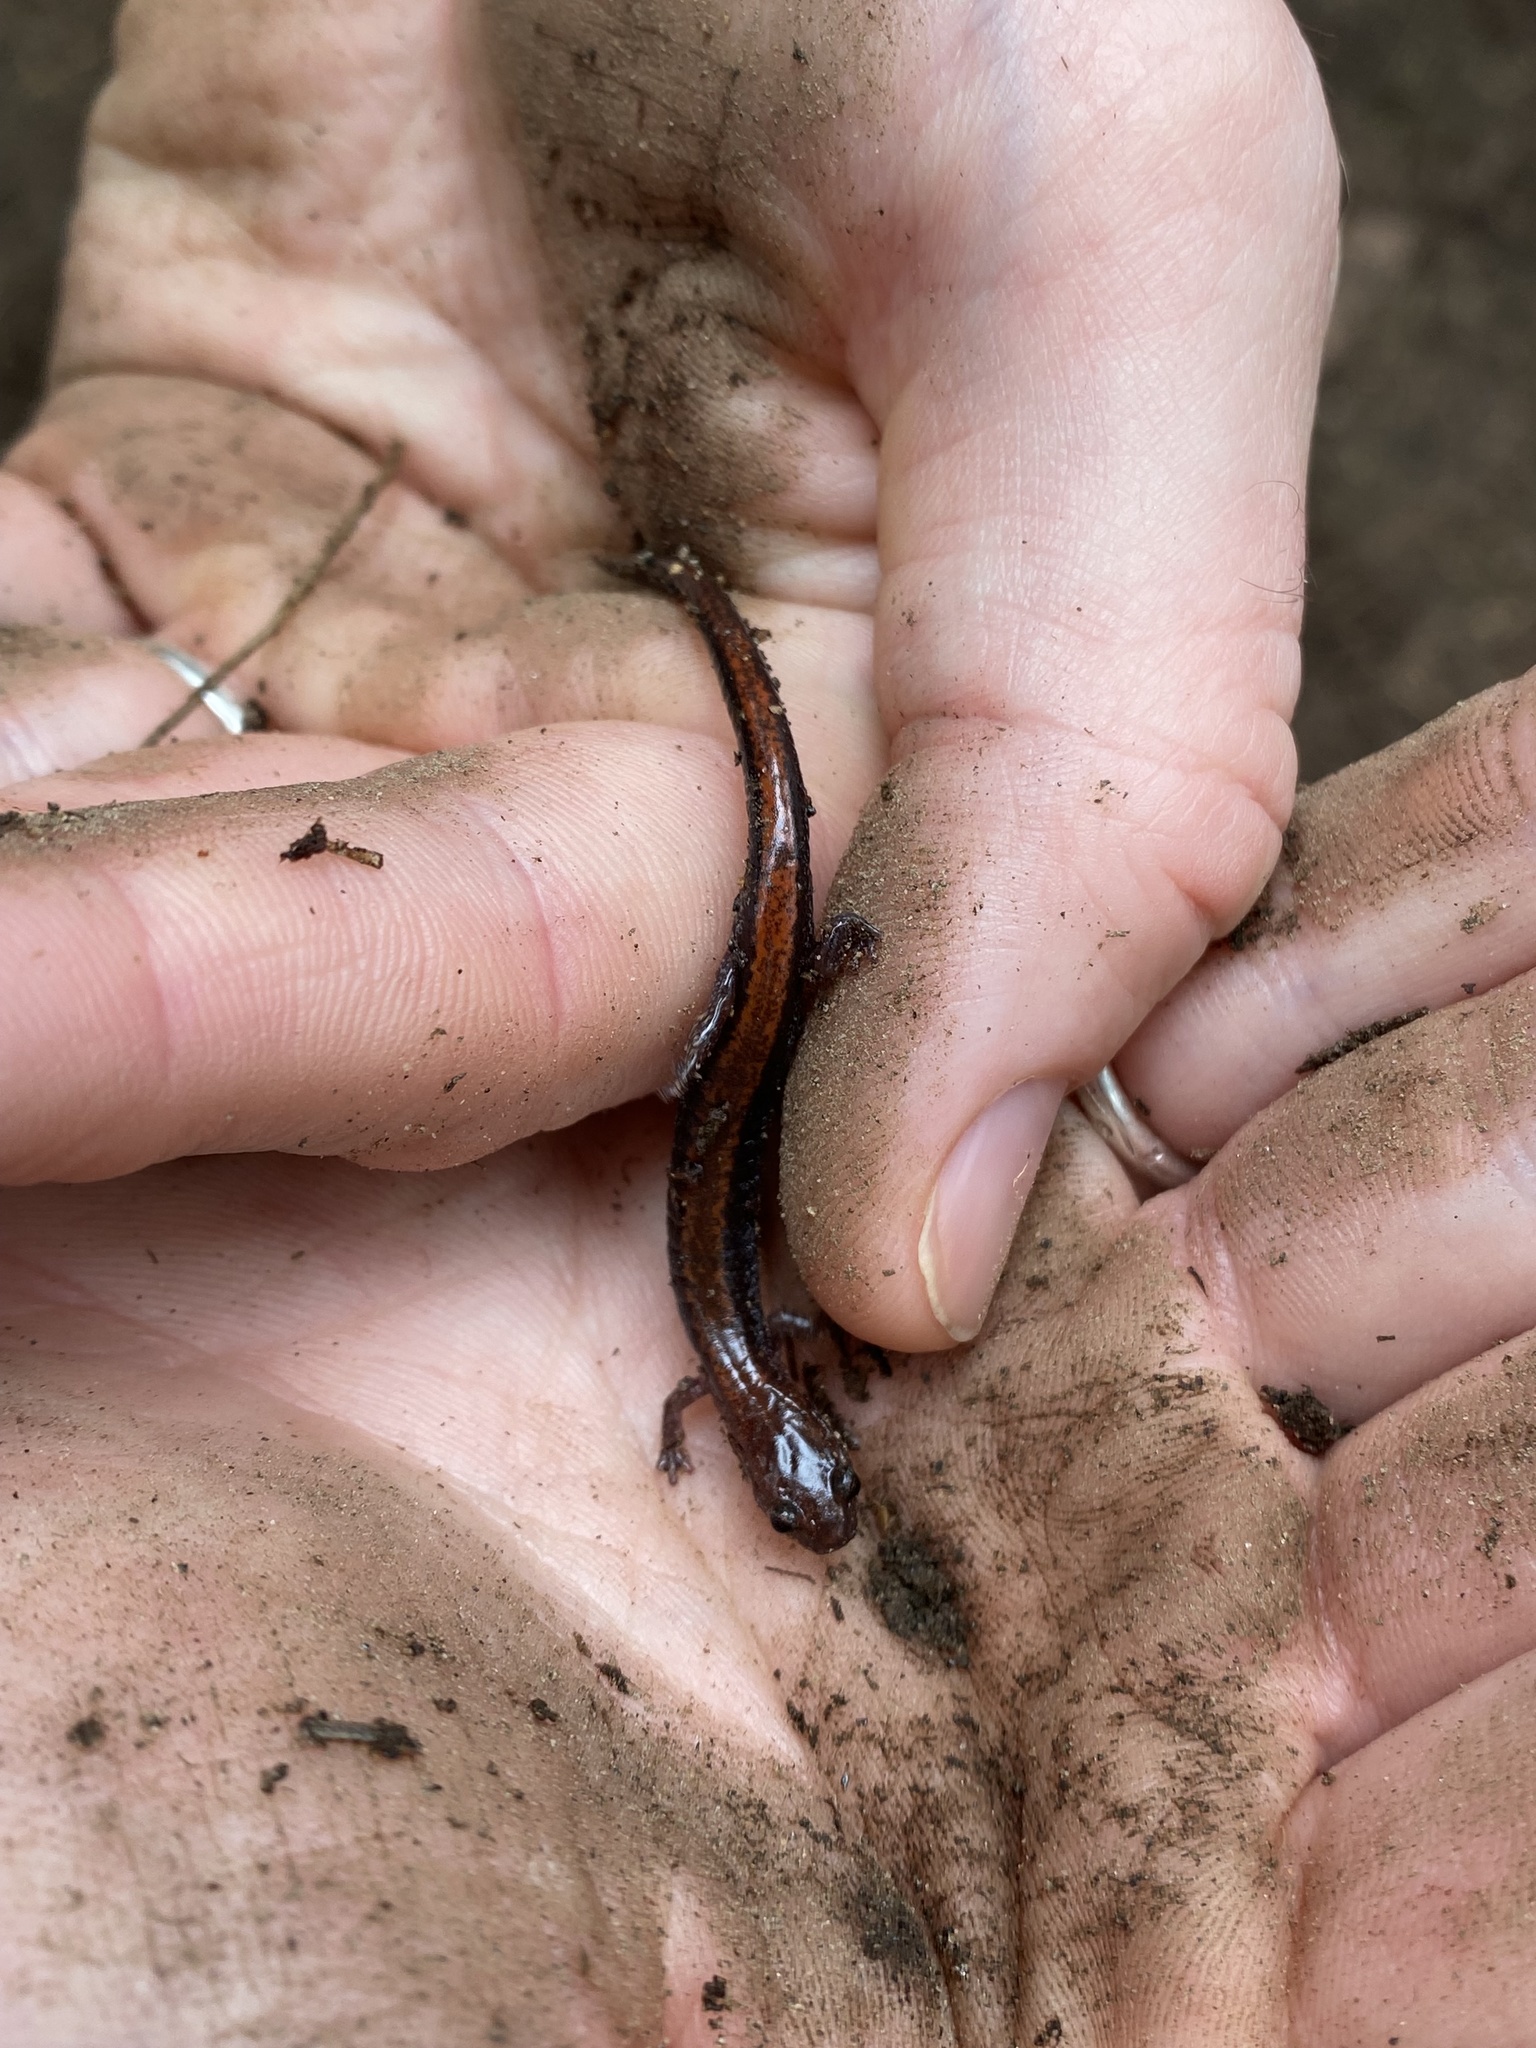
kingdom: Animalia
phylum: Chordata
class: Amphibia
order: Caudata
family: Plethodontidae
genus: Plethodon
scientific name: Plethodon cinereus
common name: Redback salamander
